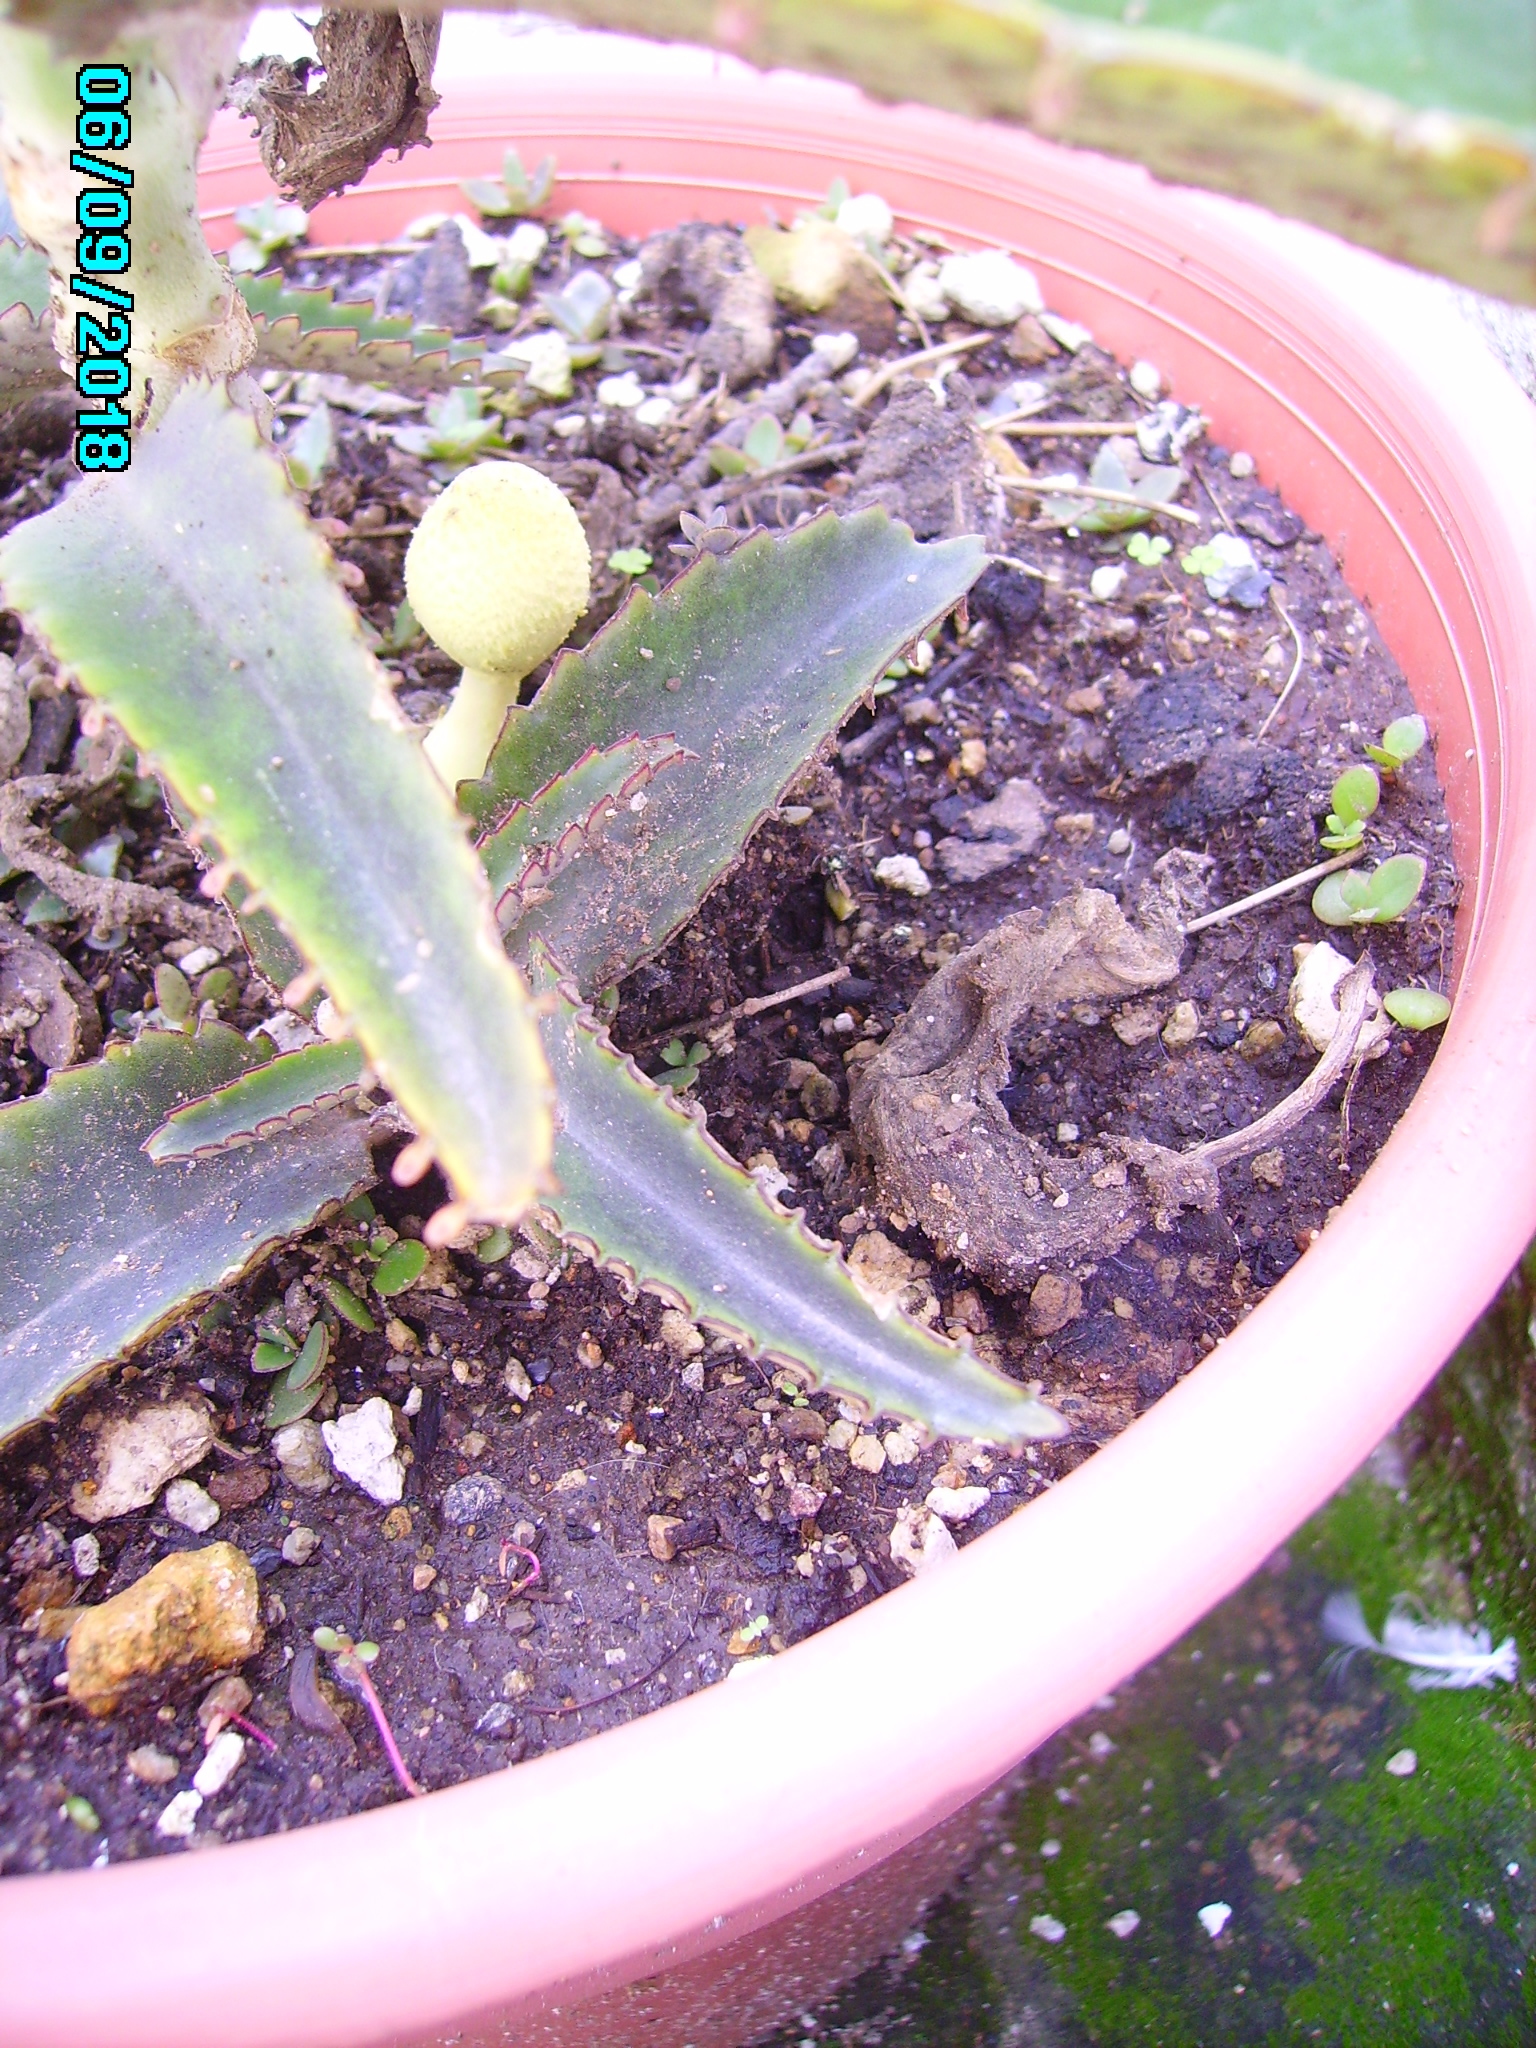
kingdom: Fungi
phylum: Basidiomycota
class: Agaricomycetes
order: Agaricales
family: Agaricaceae
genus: Leucocoprinus
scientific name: Leucocoprinus birnbaumii
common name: Plantpot dapperling
